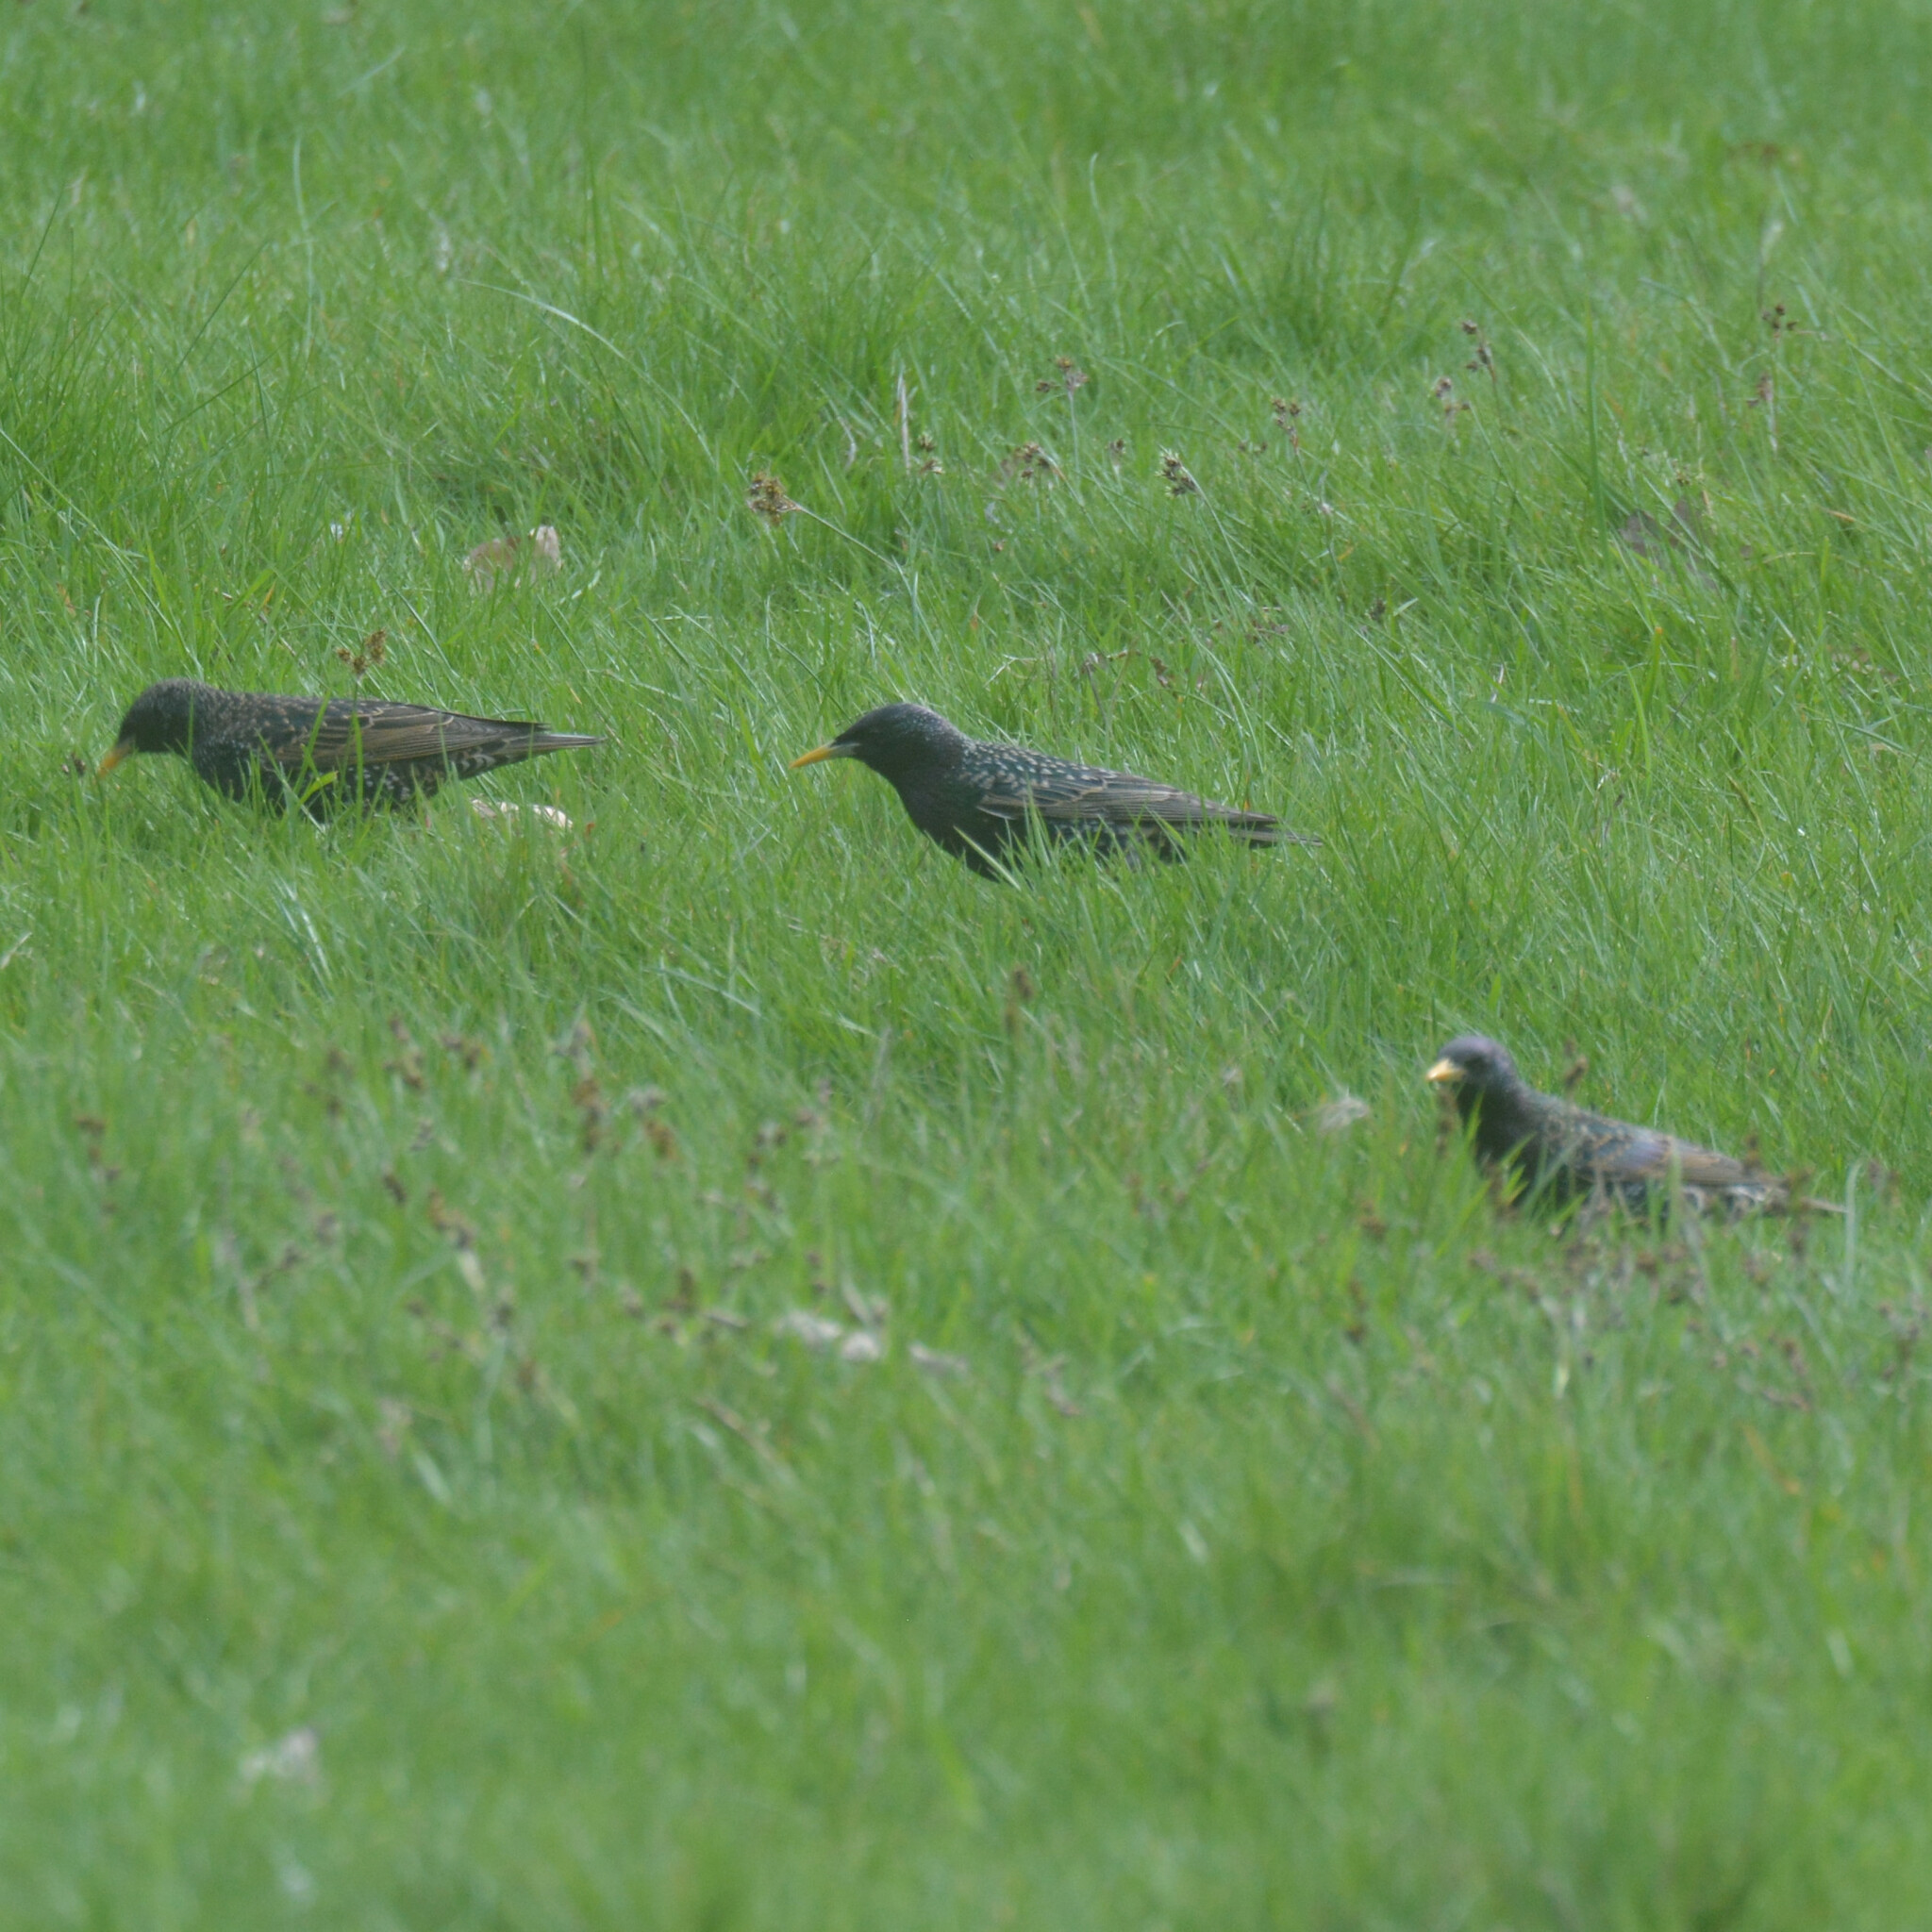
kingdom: Animalia
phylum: Chordata
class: Aves
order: Passeriformes
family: Sturnidae
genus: Sturnus
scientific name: Sturnus vulgaris
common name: Common starling
